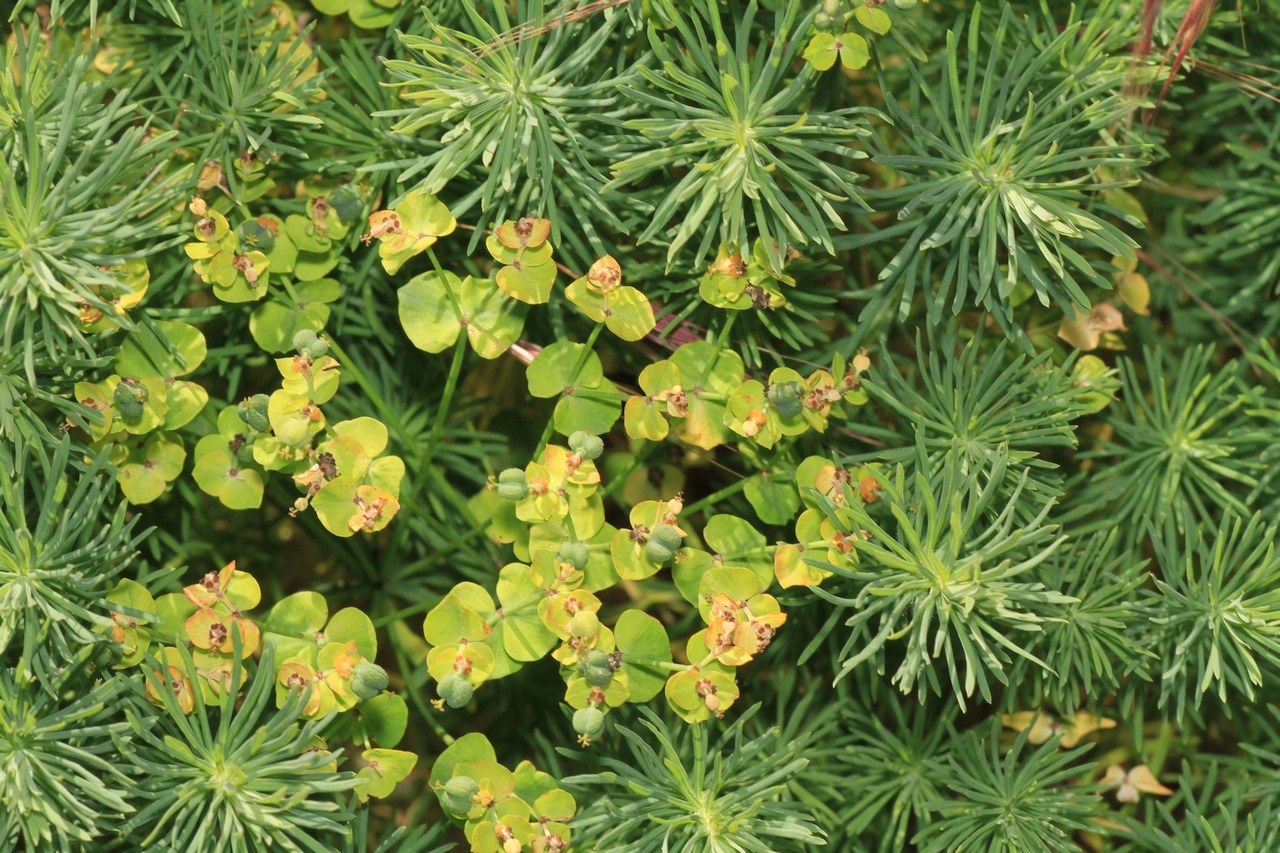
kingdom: Plantae
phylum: Tracheophyta
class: Magnoliopsida
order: Malpighiales
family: Euphorbiaceae
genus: Euphorbia
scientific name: Euphorbia cyparissias
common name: Cypress spurge
